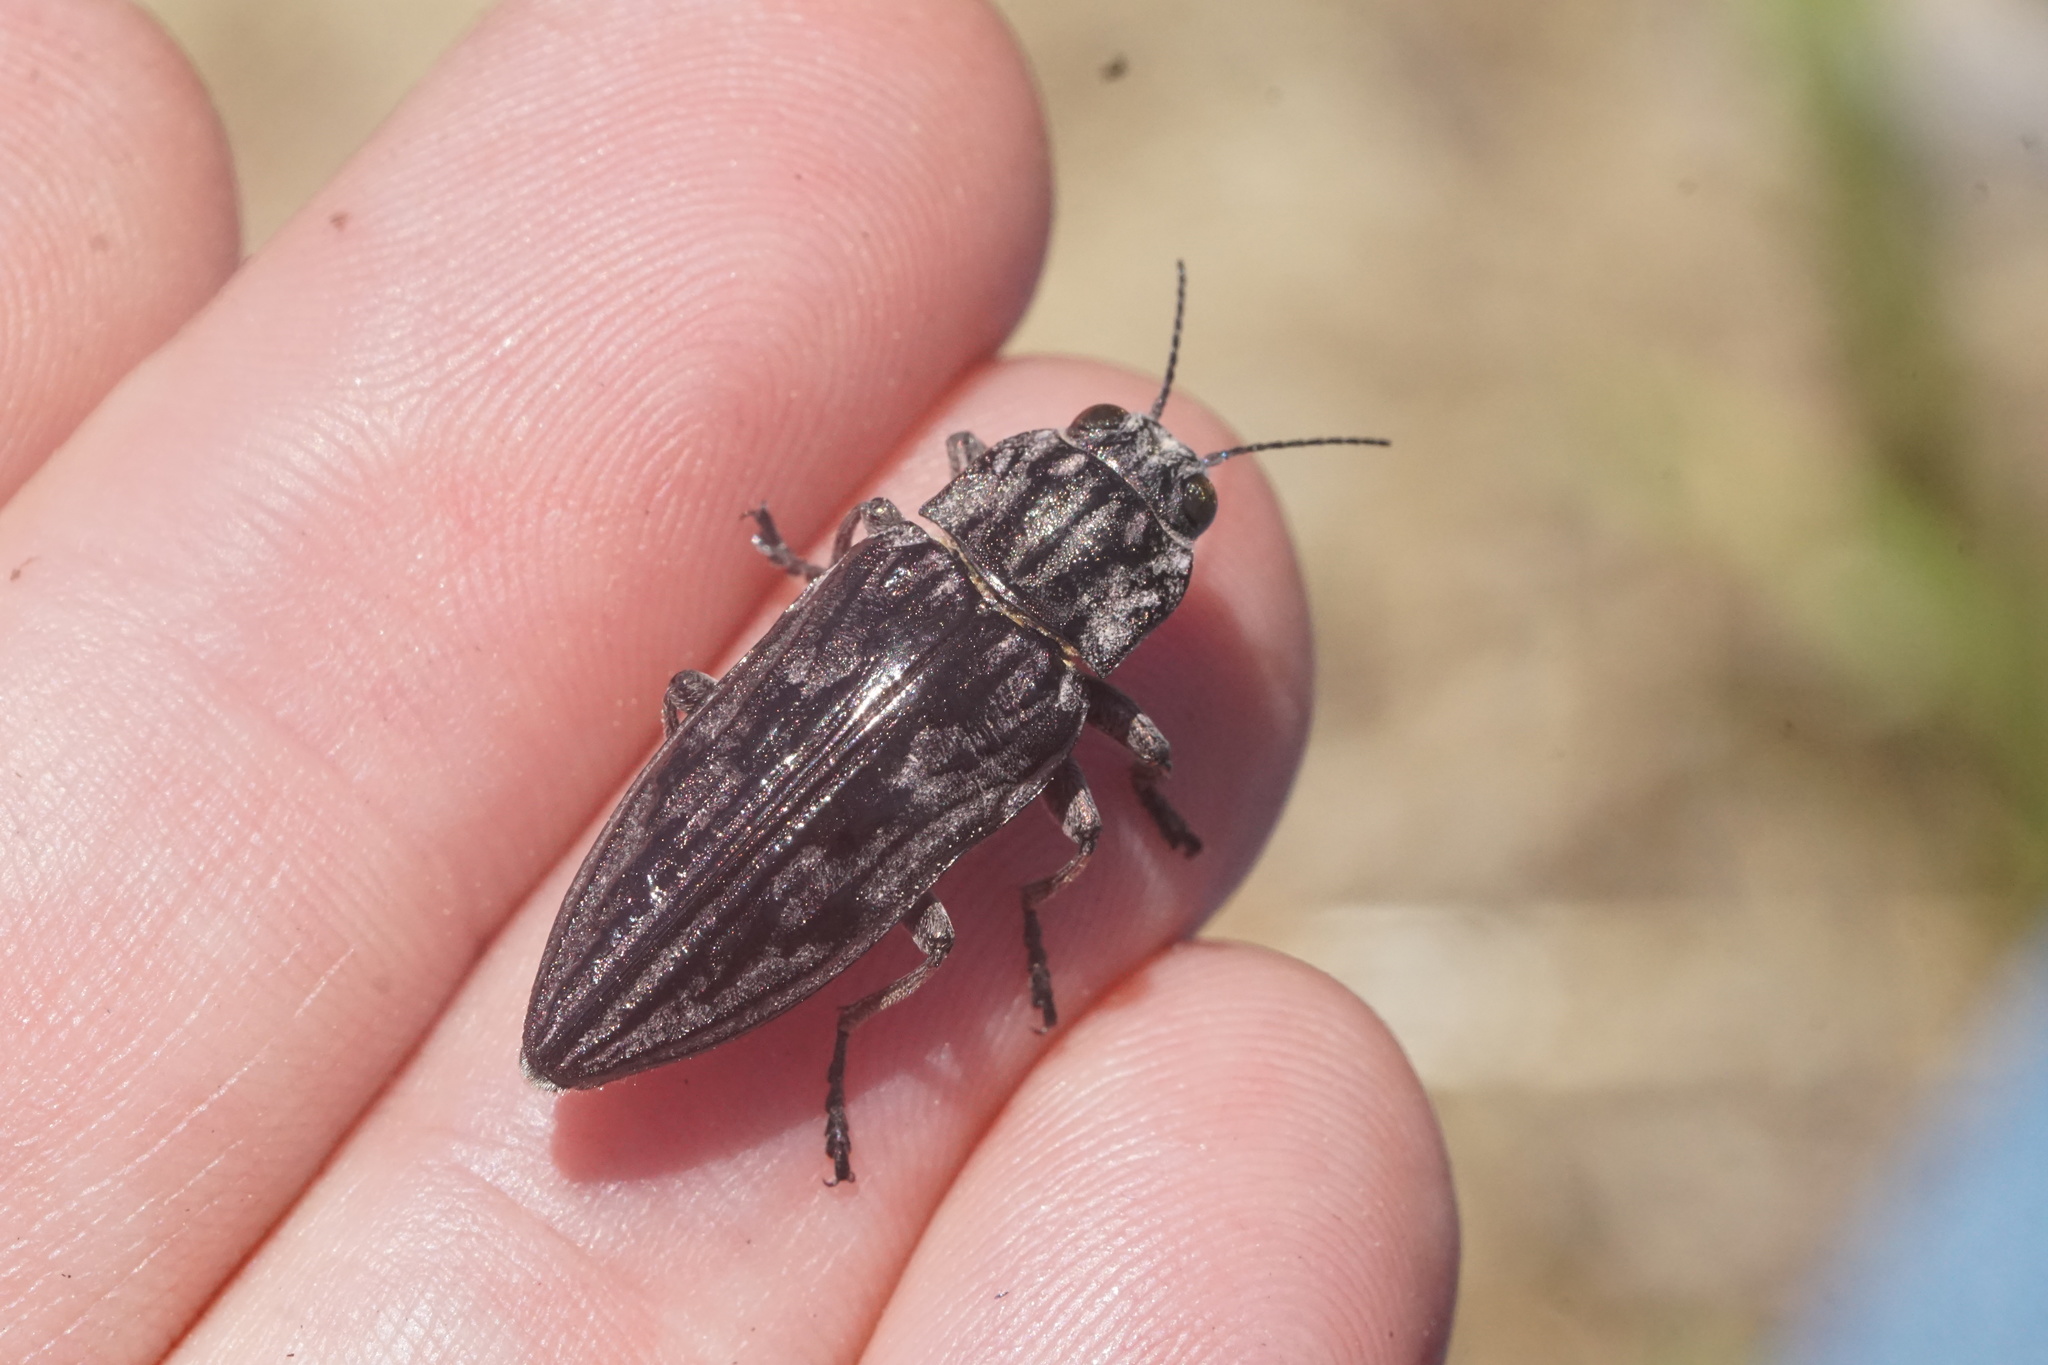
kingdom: Animalia
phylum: Arthropoda
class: Insecta
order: Coleoptera
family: Buprestidae
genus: Chalcophora
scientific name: Chalcophora virginiensis
